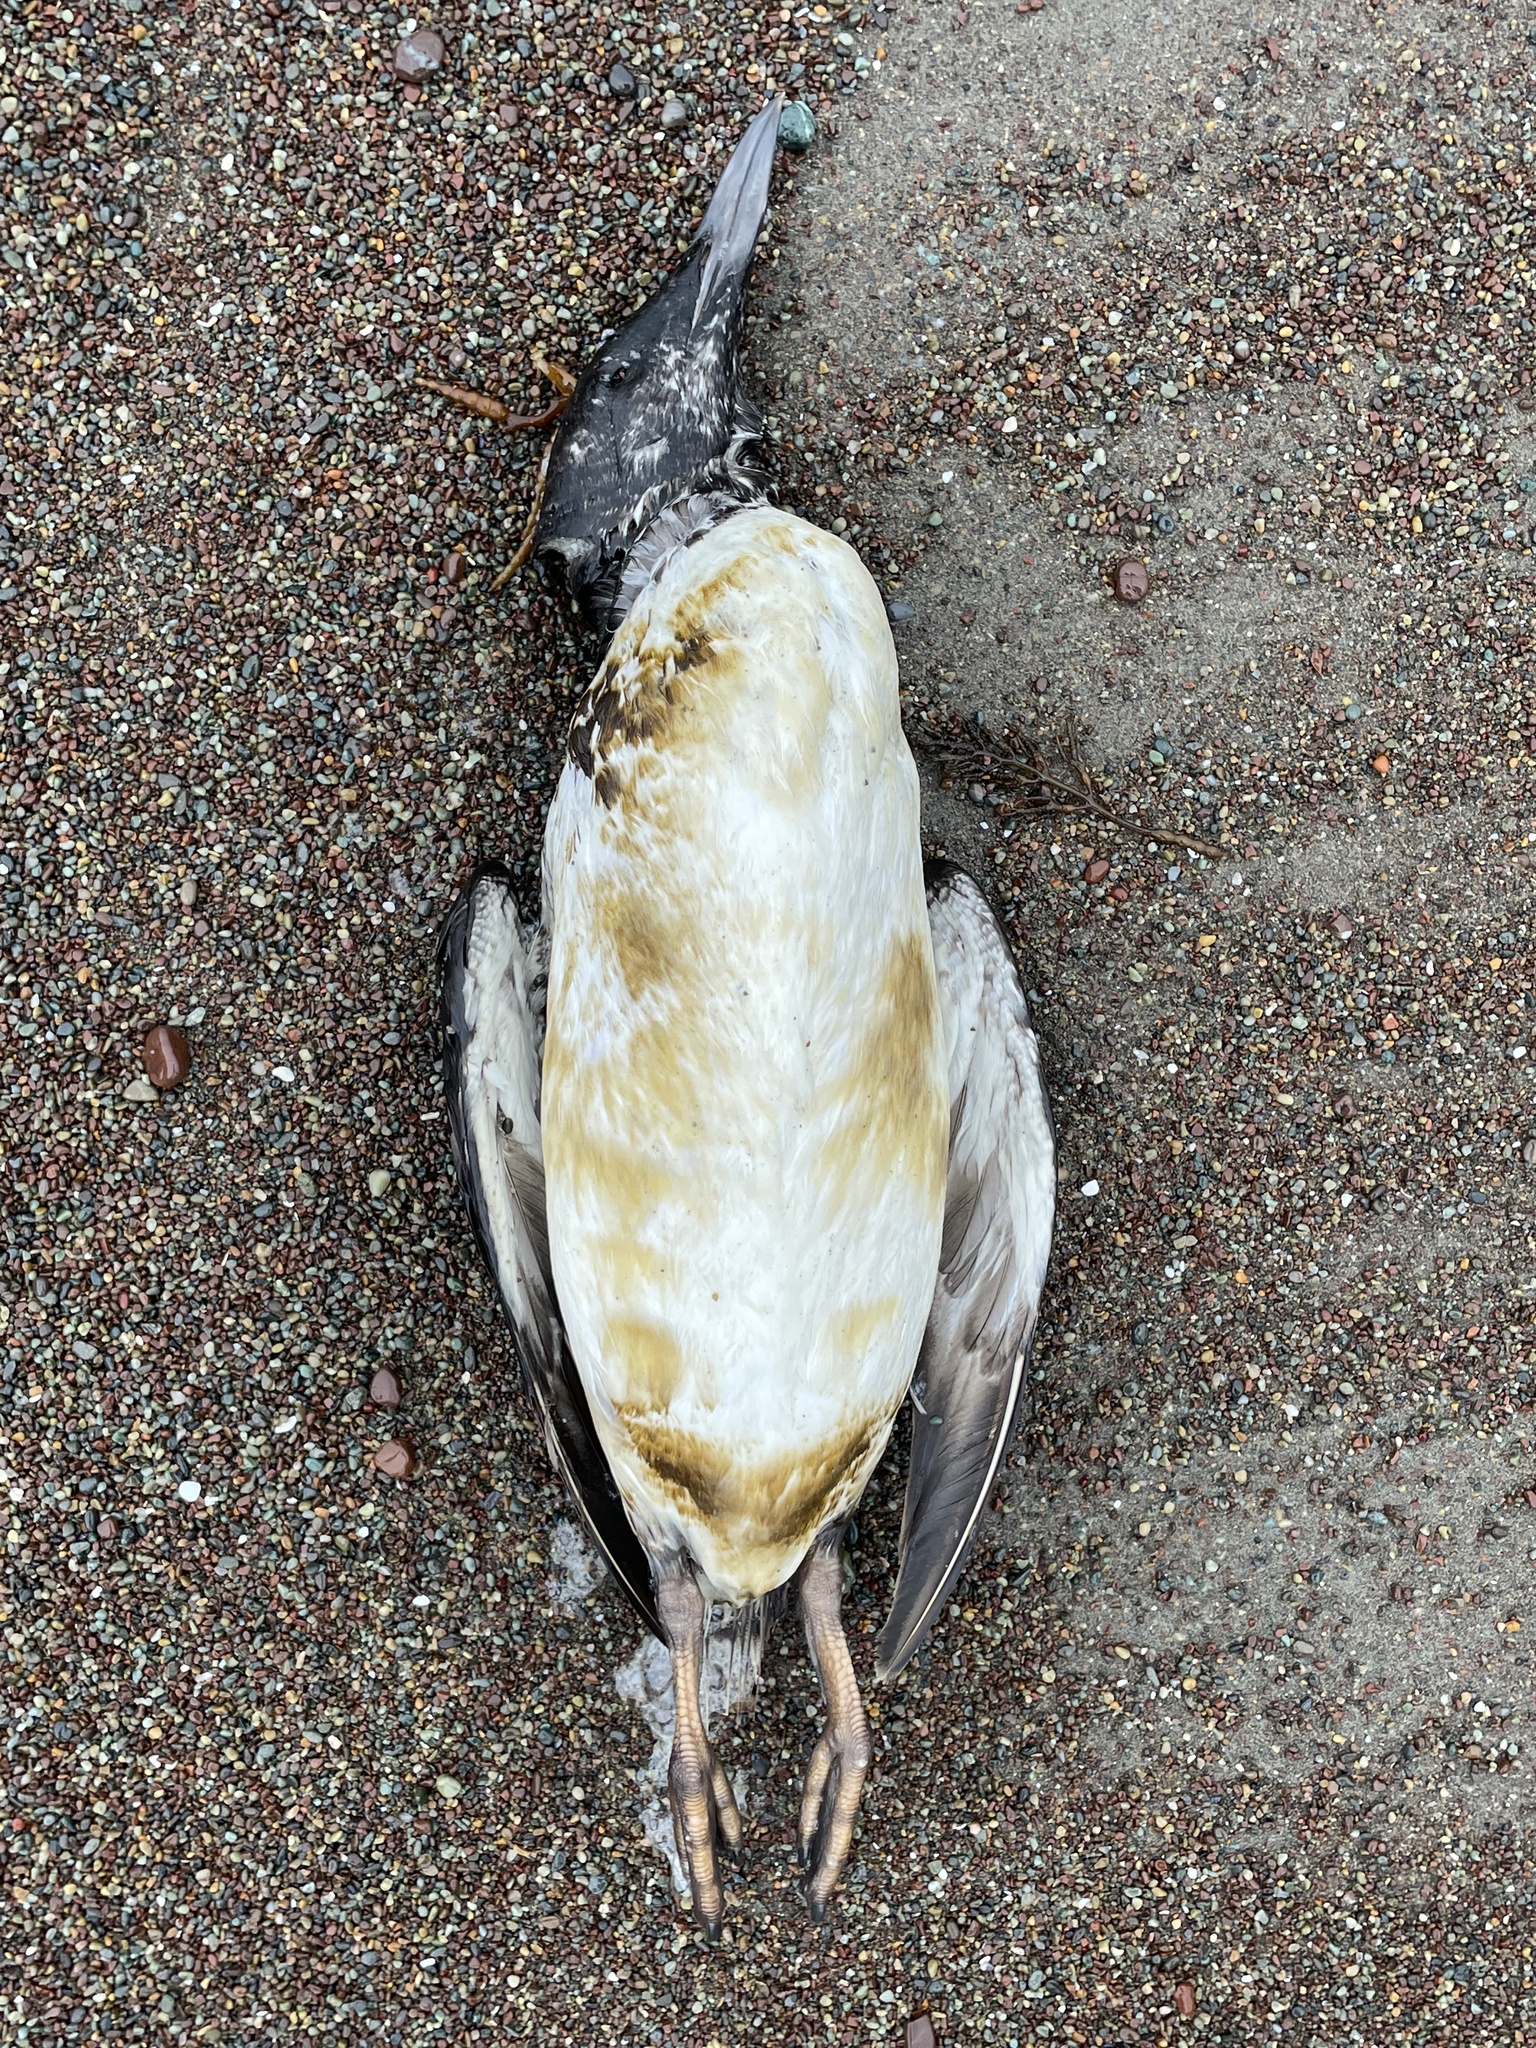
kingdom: Animalia
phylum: Chordata
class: Aves
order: Charadriiformes
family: Alcidae
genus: Uria
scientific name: Uria aalge
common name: Common murre
